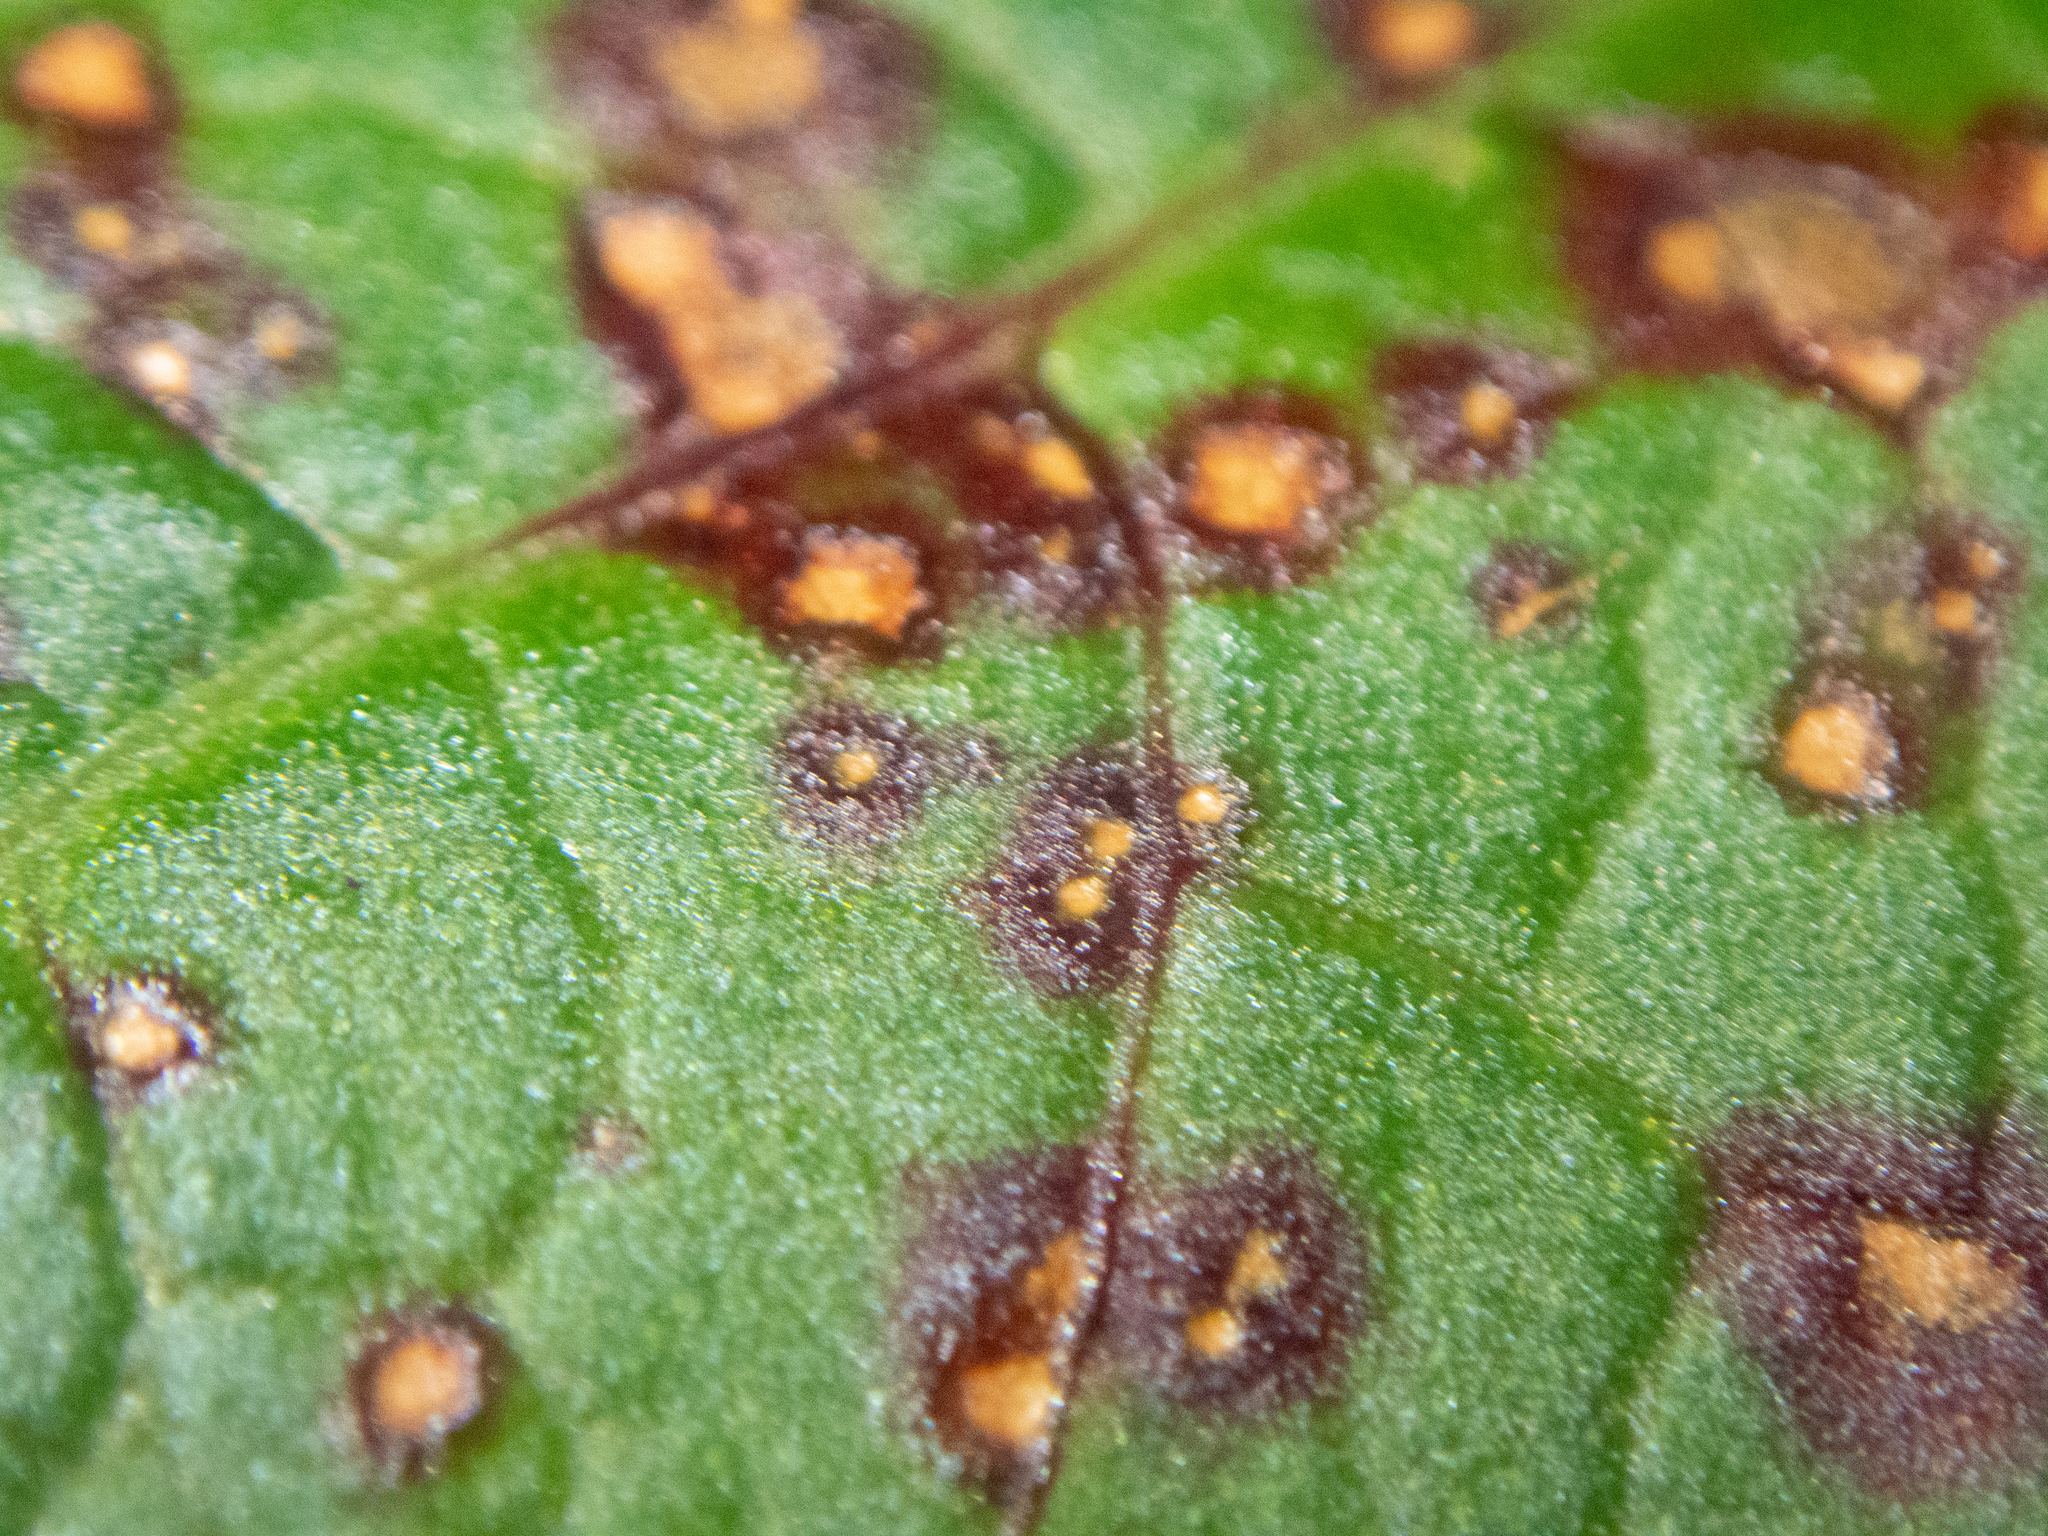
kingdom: Fungi
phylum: Ascomycota
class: Dothideomycetes
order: Mycosphaerellales
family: Mycosphaerellaceae
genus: Ramularia
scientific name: Ramularia rubella
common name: Red dock spot
